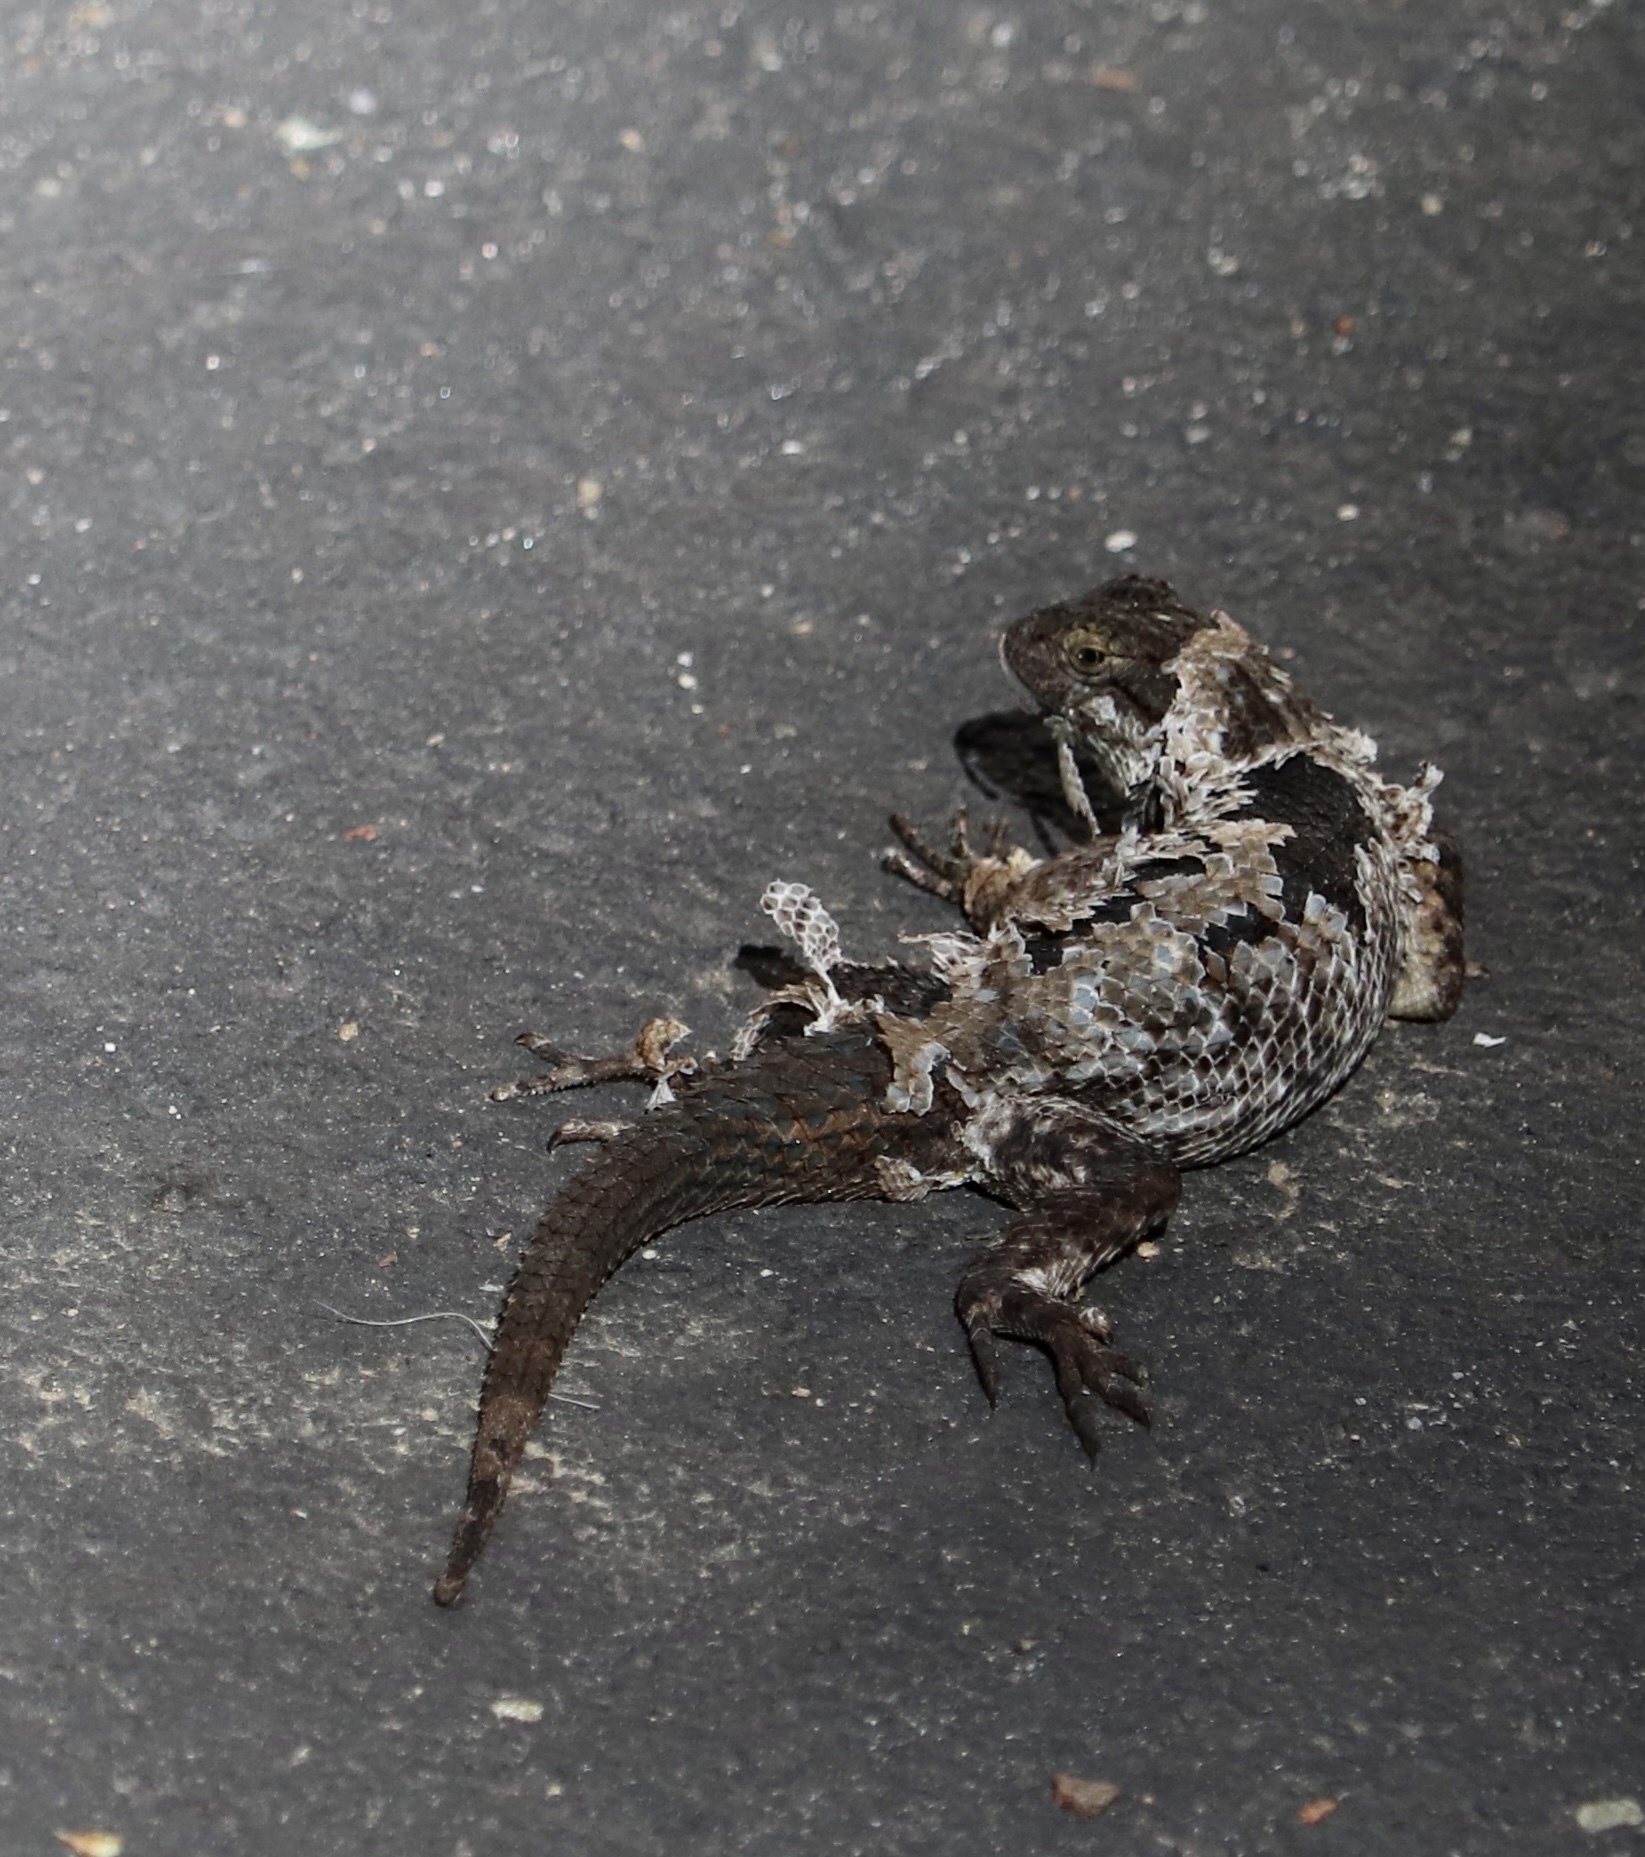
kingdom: Animalia
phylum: Chordata
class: Squamata
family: Phrynosomatidae
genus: Sceloporus
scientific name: Sceloporus occidentalis
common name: Western fence lizard
